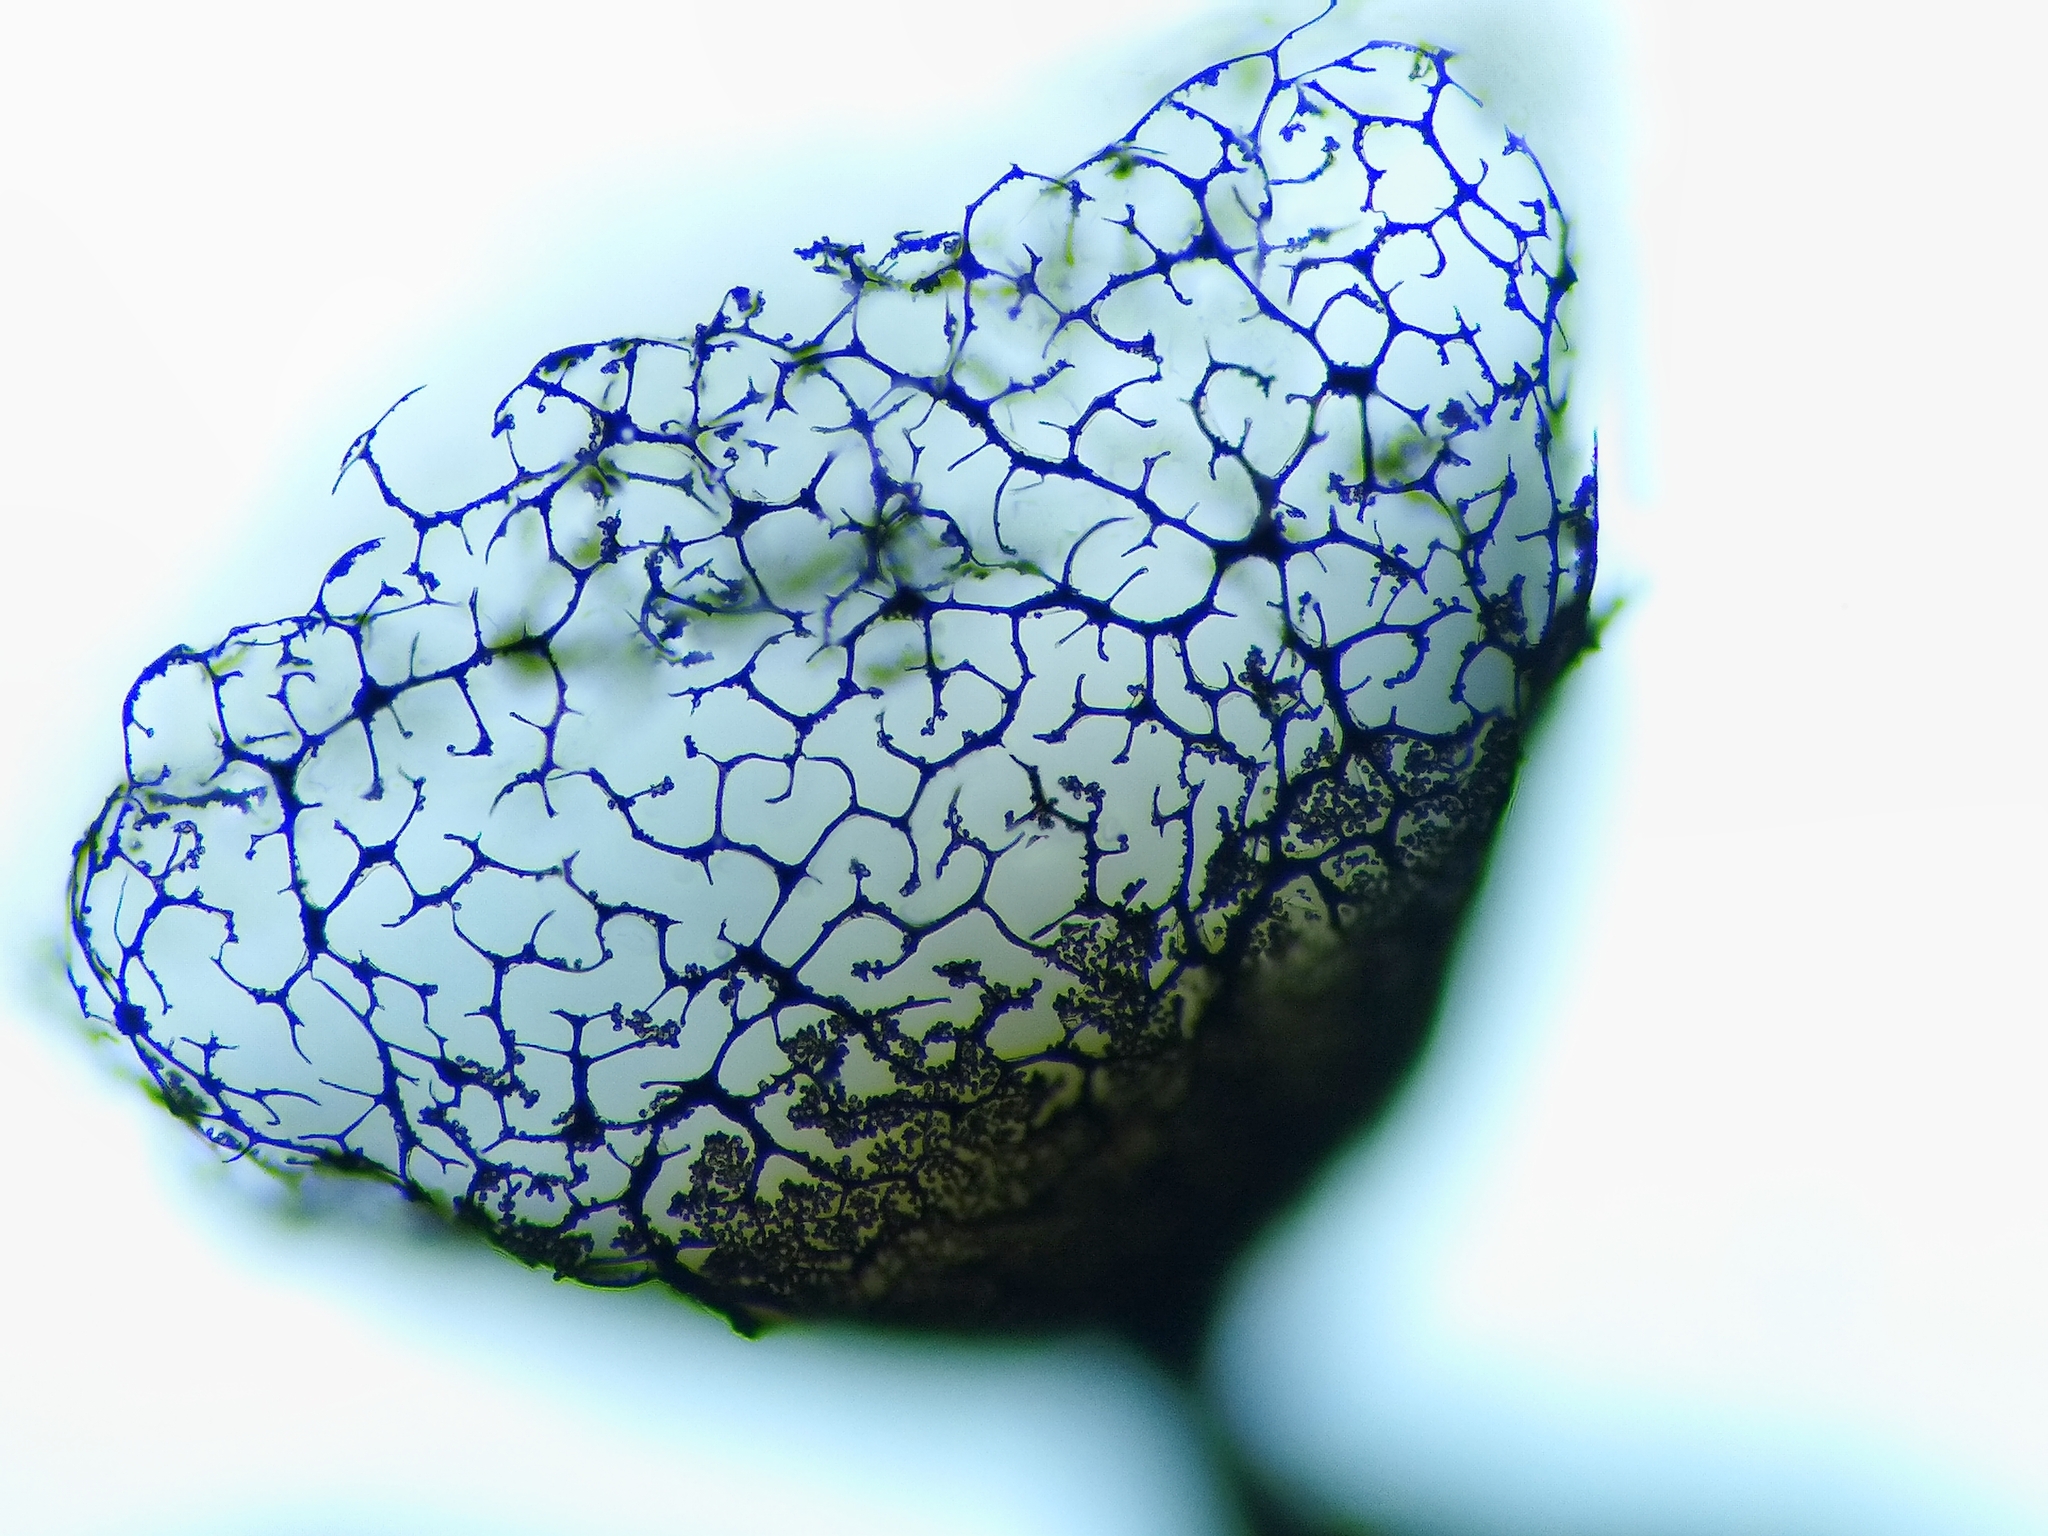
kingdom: Protozoa
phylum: Mycetozoa
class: Myxomycetes
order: Cribrariales
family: Cribrariaceae
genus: Cribraria
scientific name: Cribraria macrocarpa
